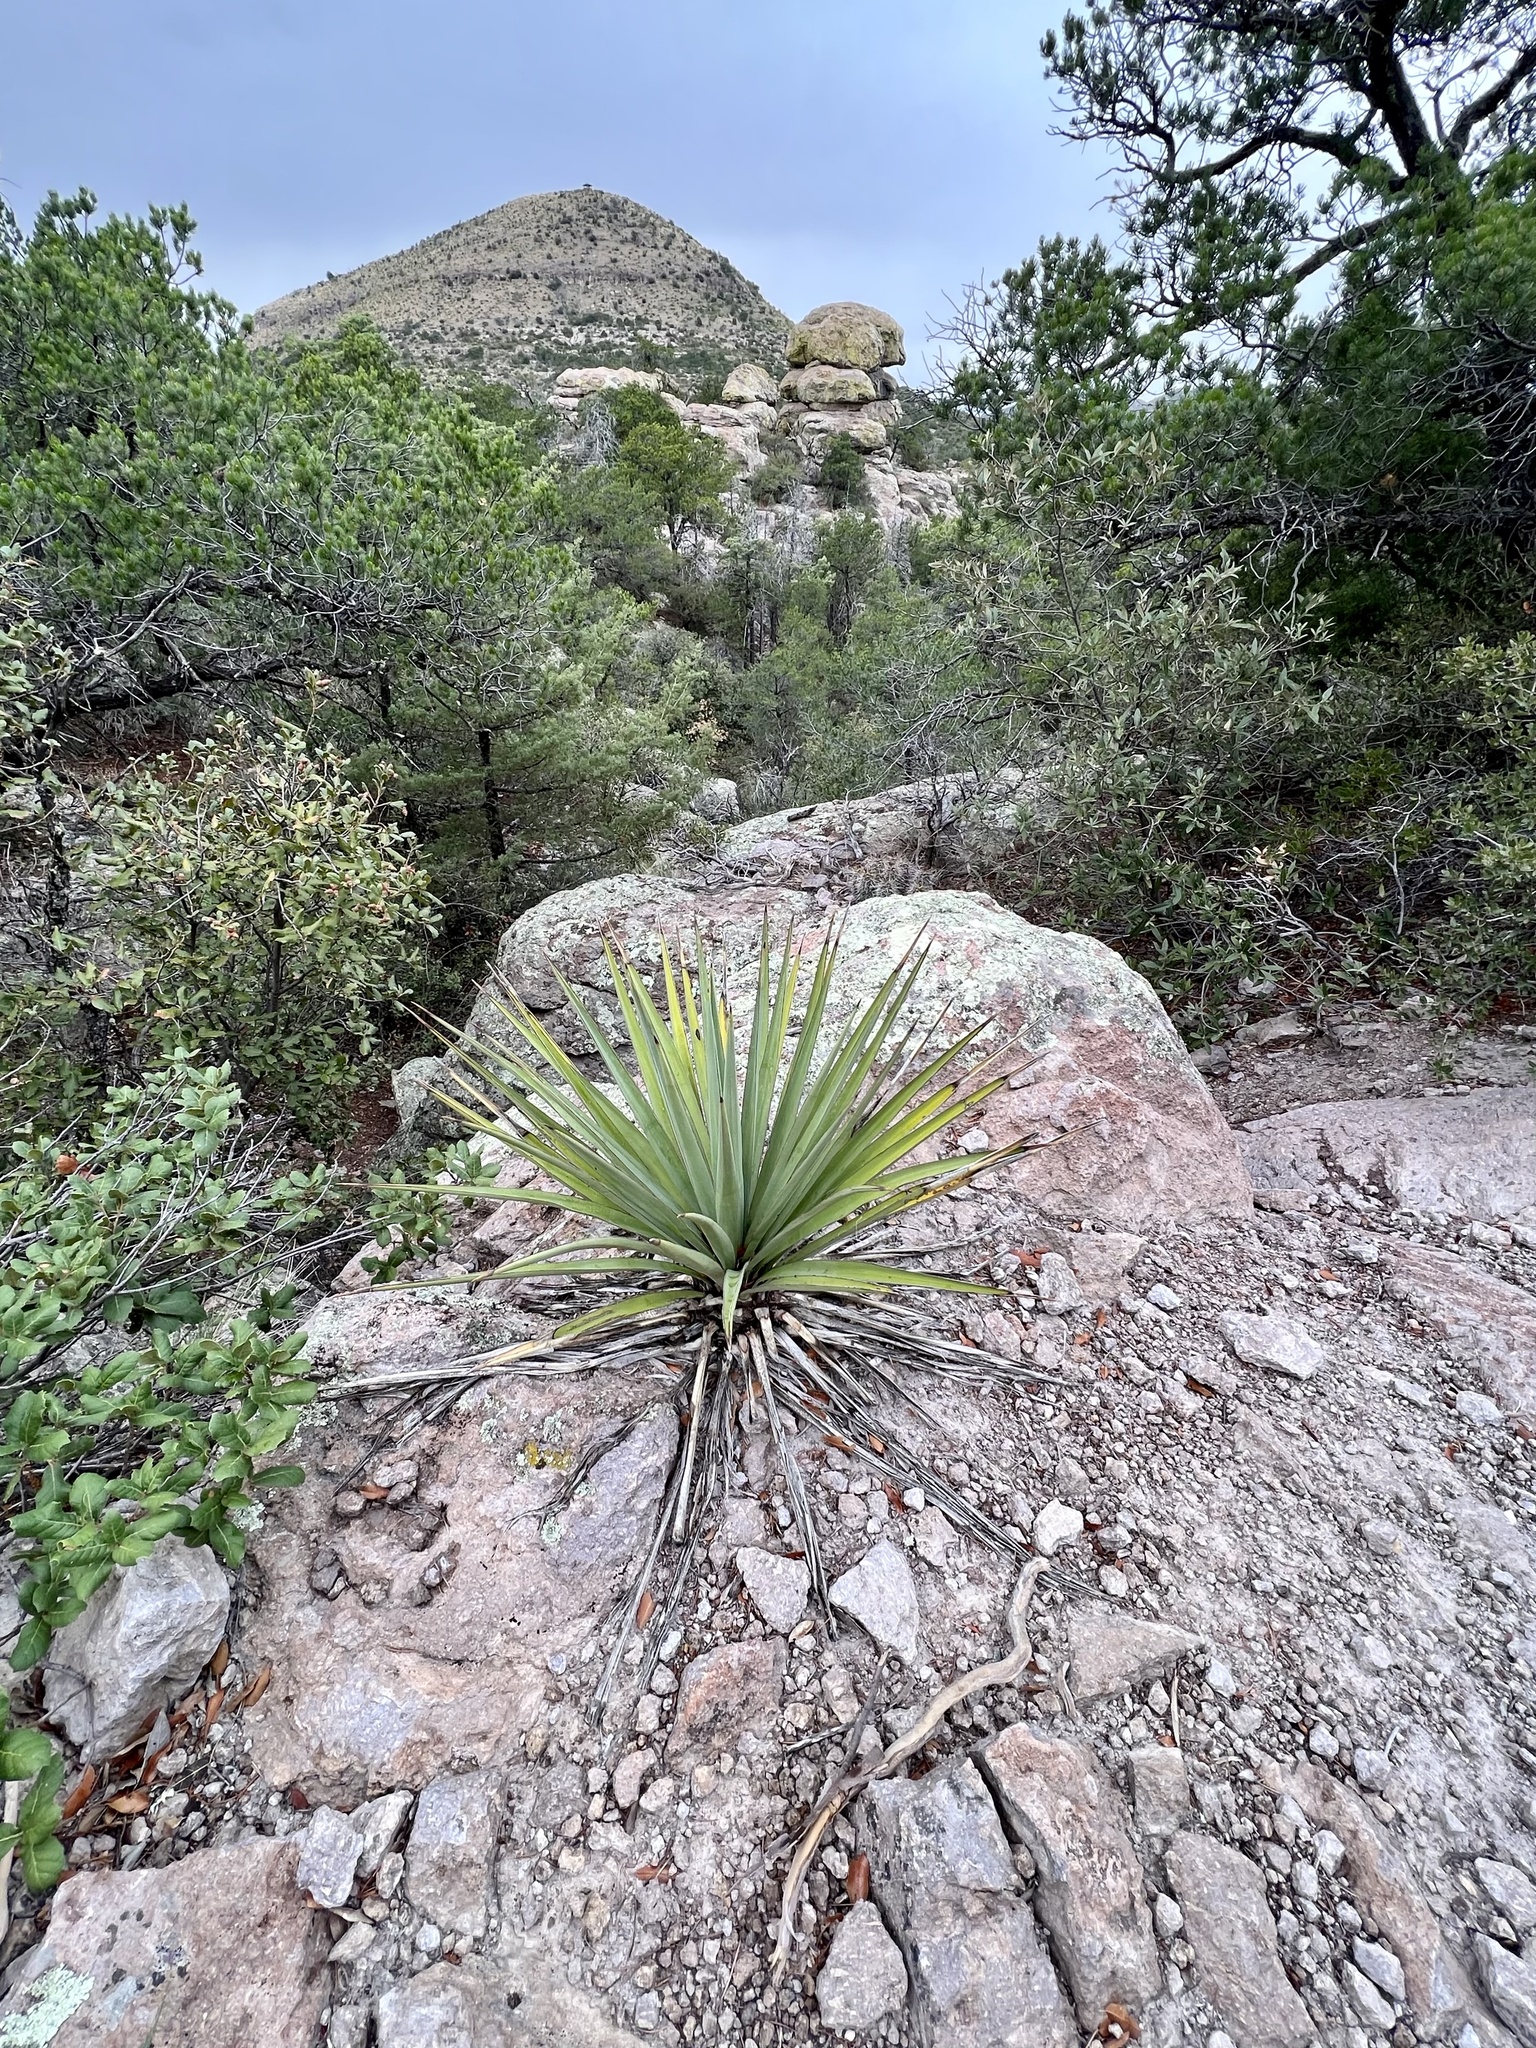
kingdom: Plantae
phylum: Tracheophyta
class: Liliopsida
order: Asparagales
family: Asparagaceae
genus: Yucca
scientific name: Yucca schottii
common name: Hoary yucca
